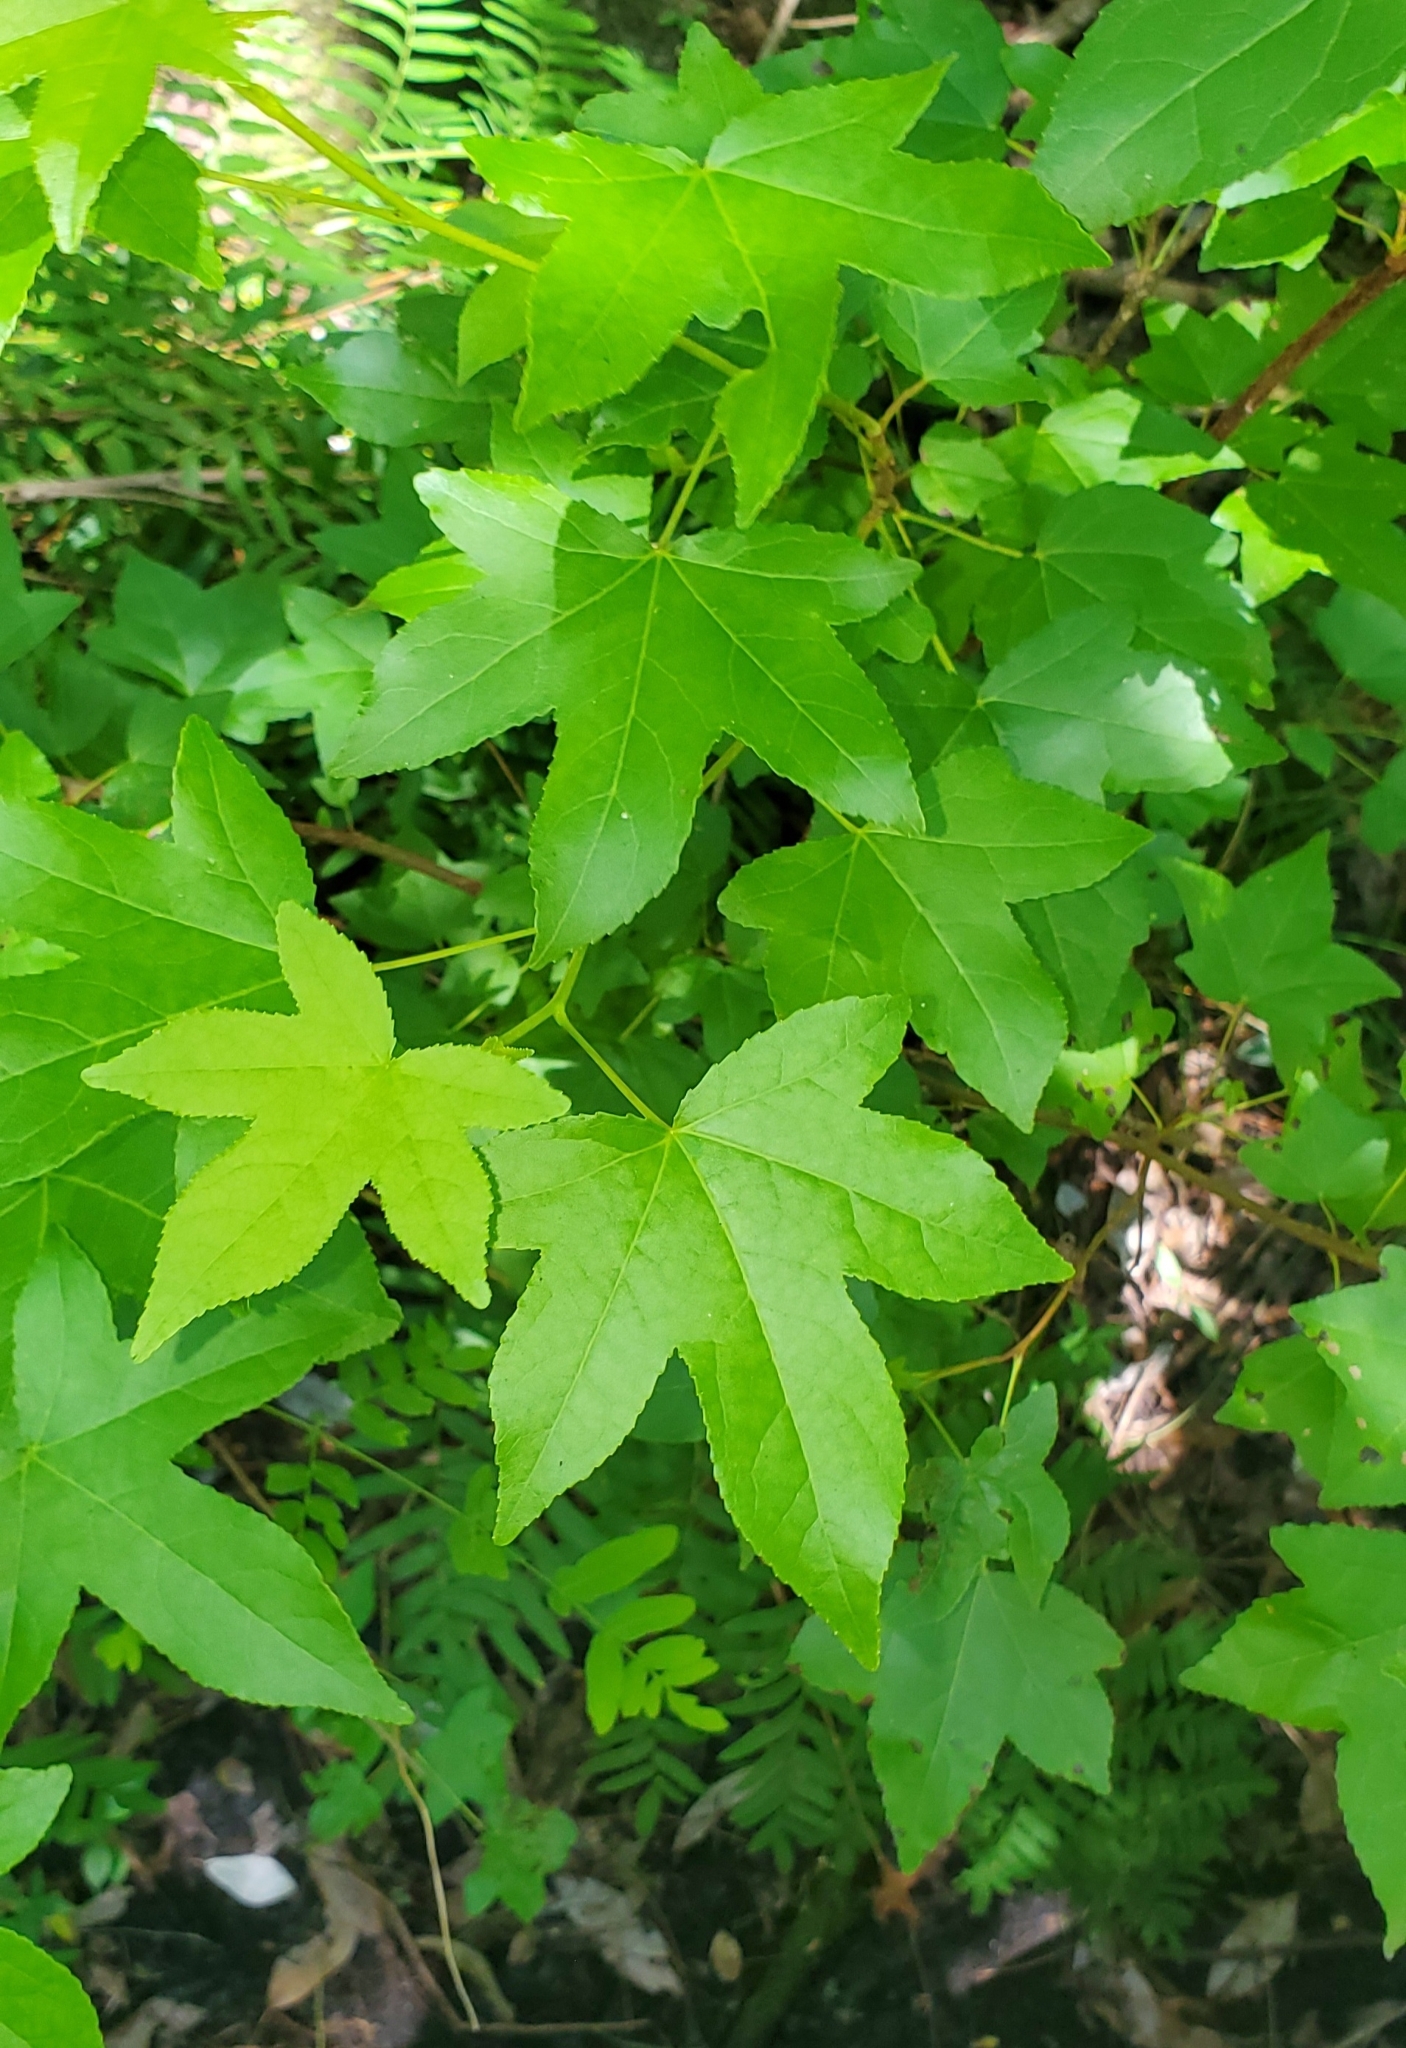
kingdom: Plantae
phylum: Tracheophyta
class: Magnoliopsida
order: Saxifragales
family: Altingiaceae
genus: Liquidambar
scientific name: Liquidambar styraciflua
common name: Sweet gum
